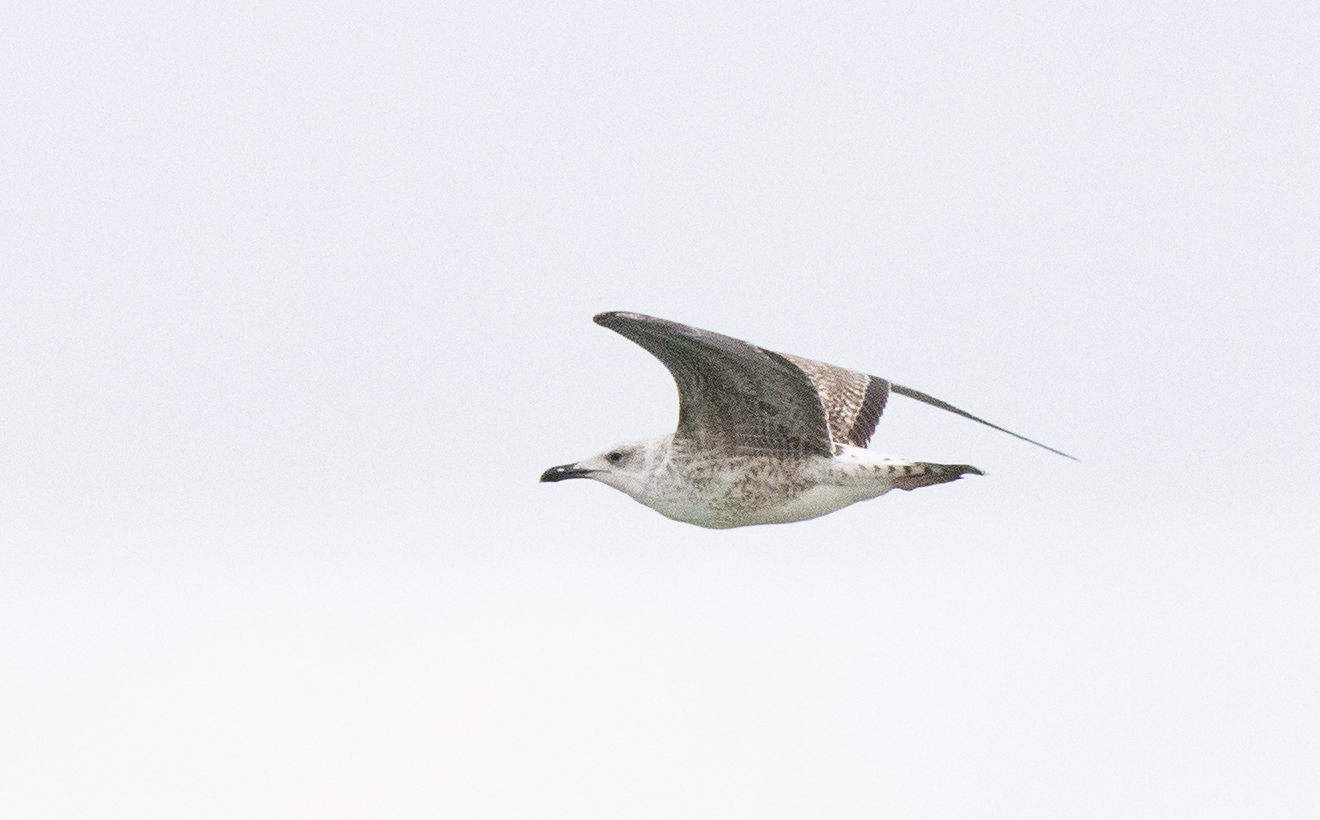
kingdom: Animalia
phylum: Chordata
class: Aves
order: Charadriiformes
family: Laridae
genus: Larus
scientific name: Larus michahellis
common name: Yellow-legged gull
